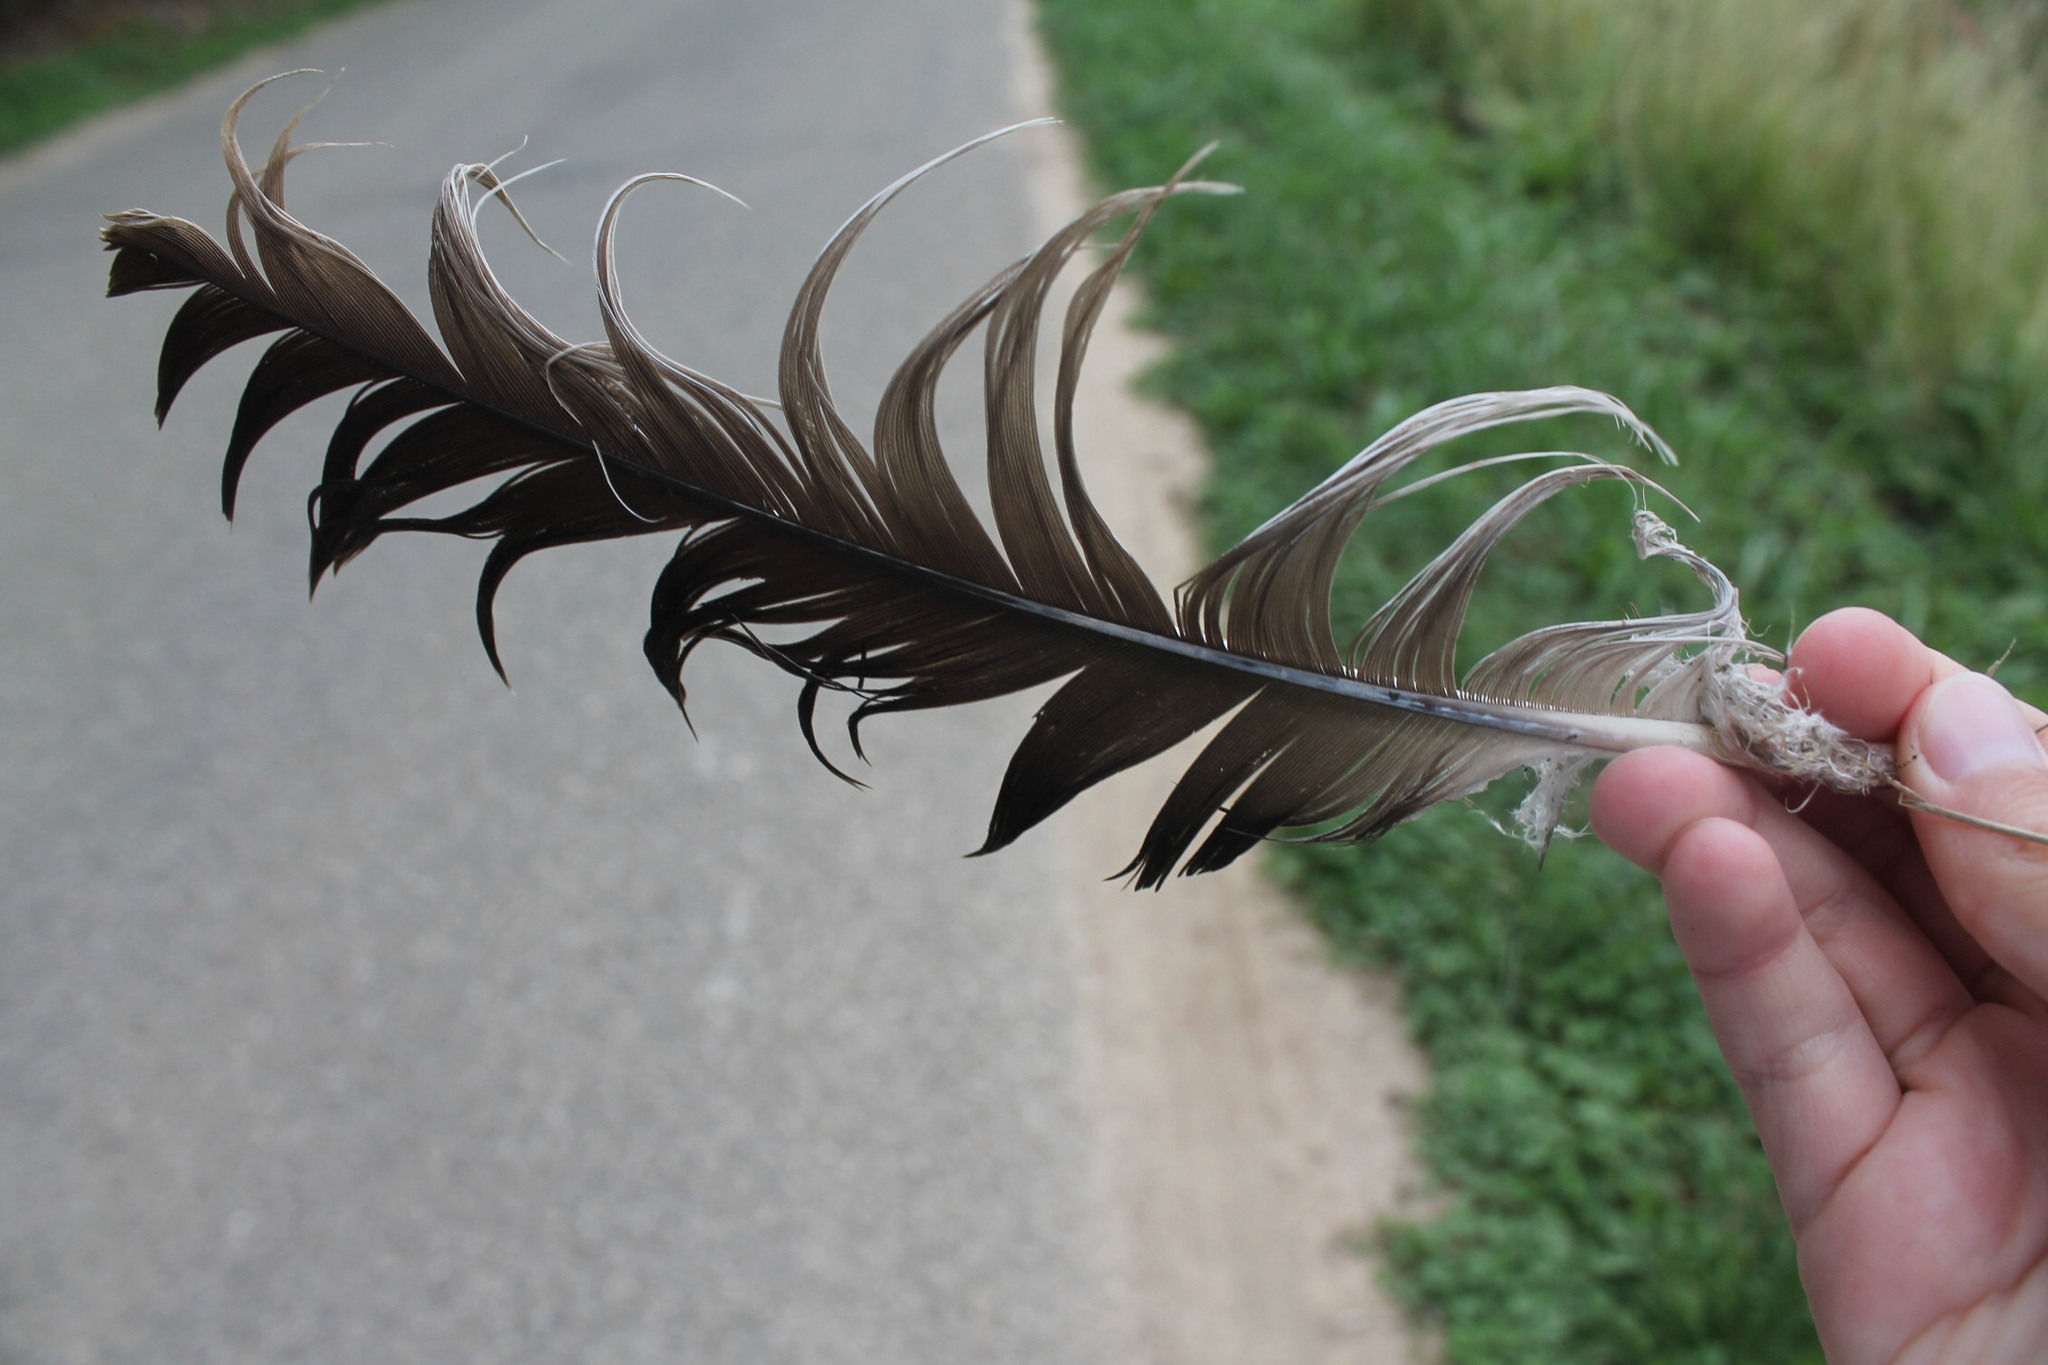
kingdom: Animalia
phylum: Chordata
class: Aves
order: Anseriformes
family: Anatidae
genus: Branta
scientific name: Branta canadensis
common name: Canada goose
